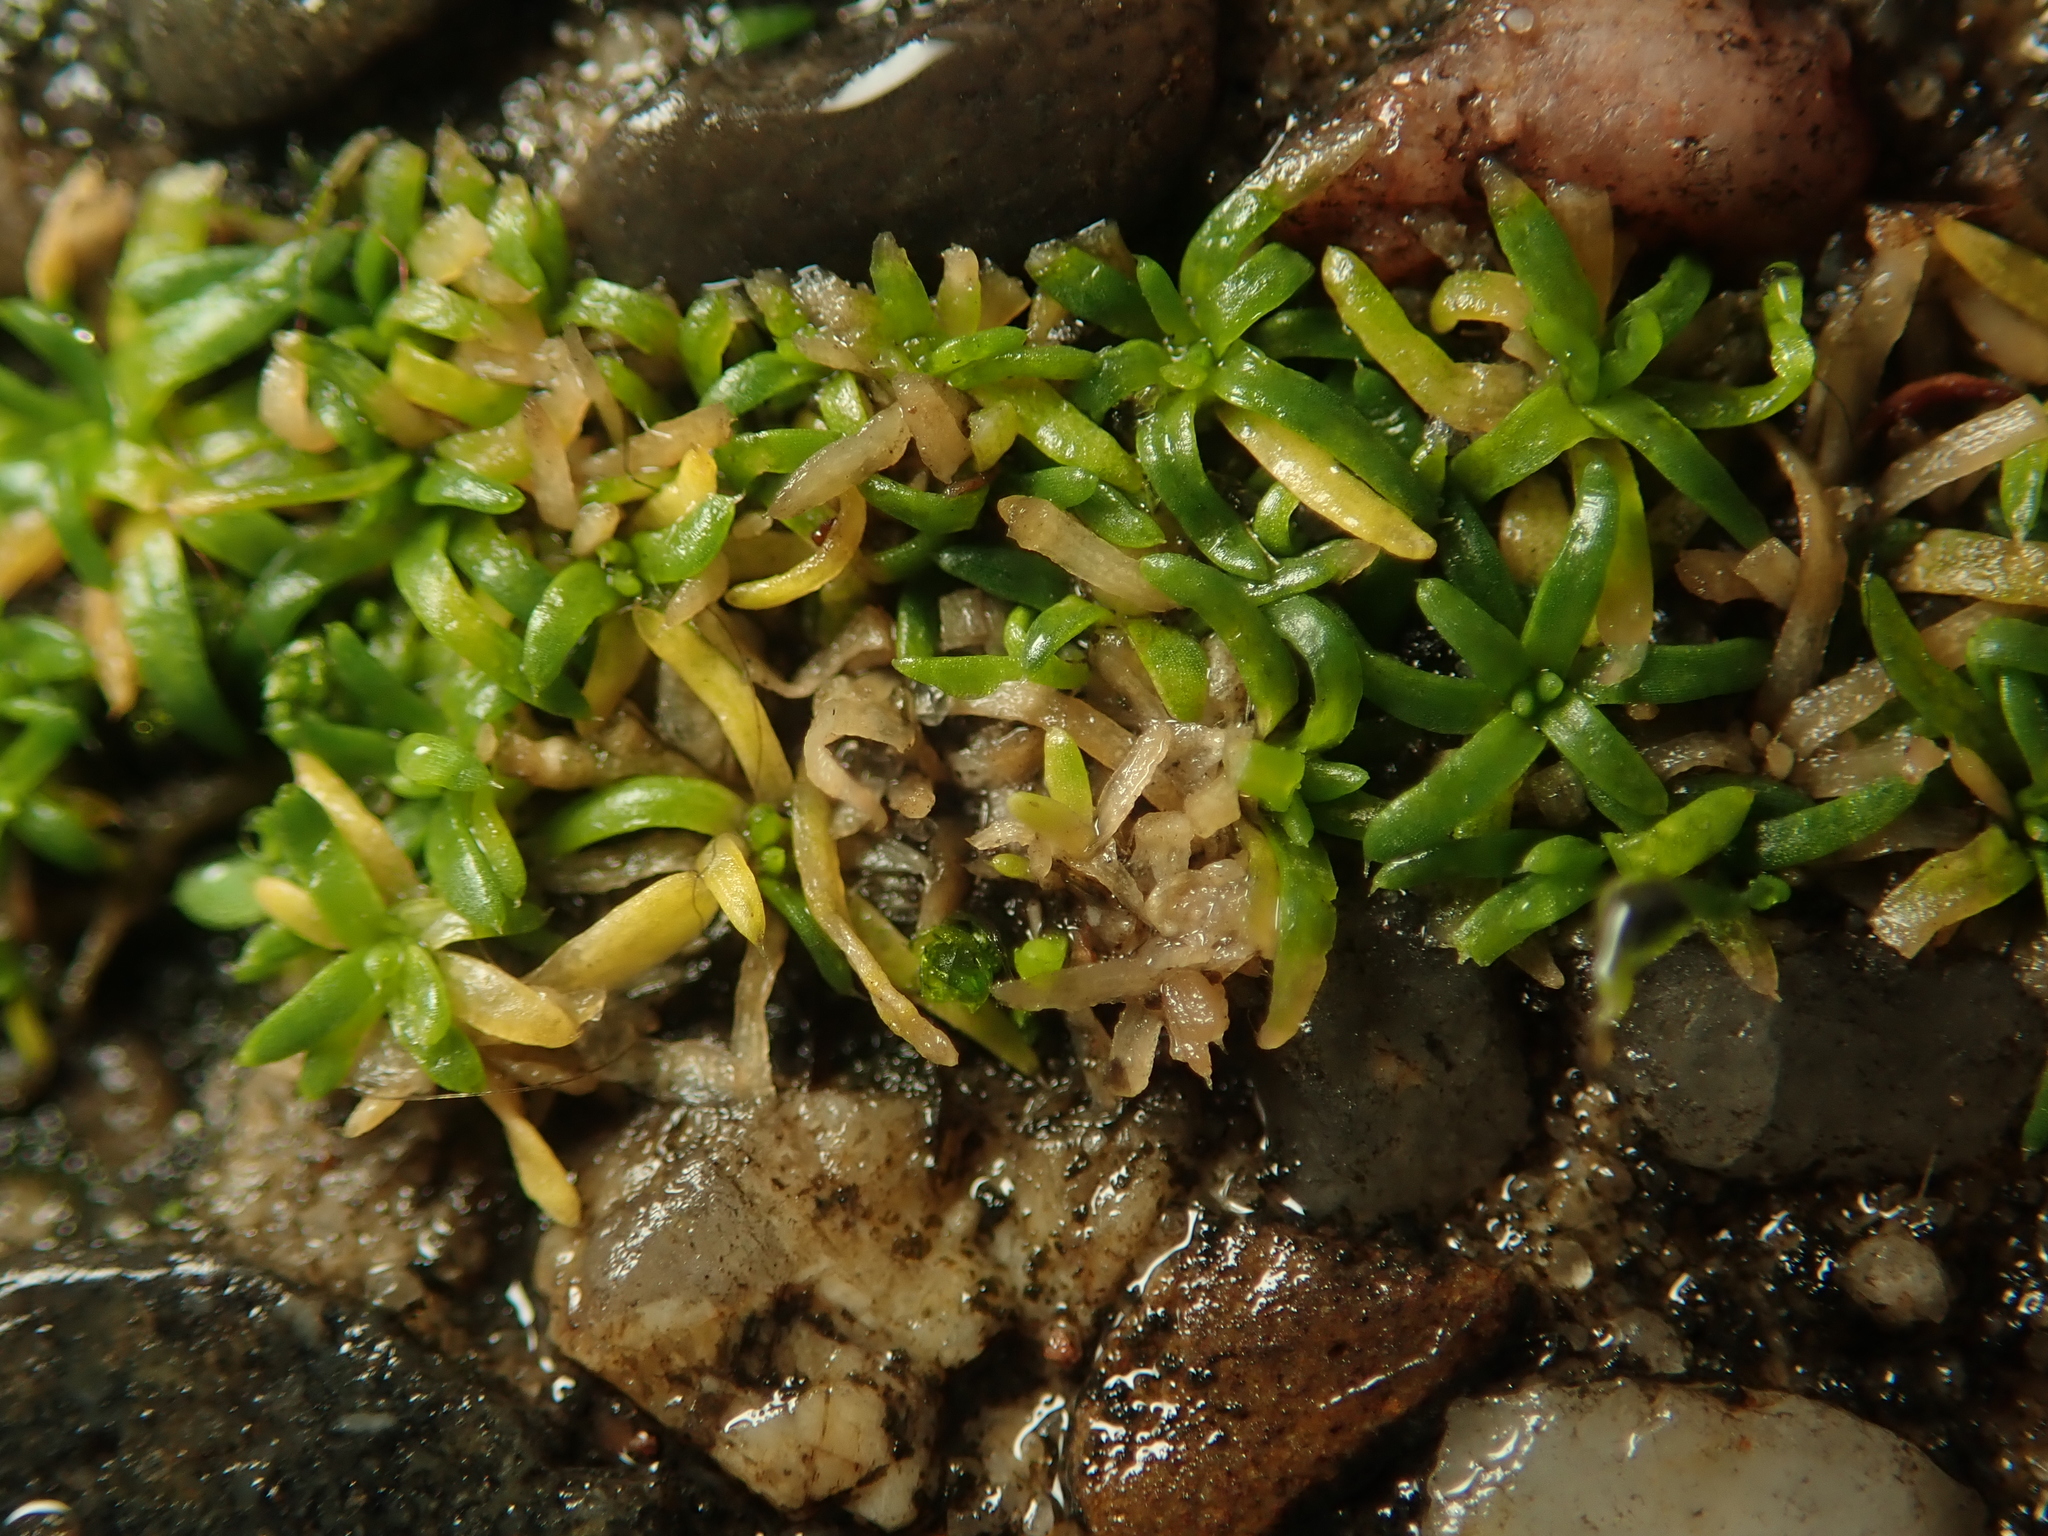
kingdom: Plantae
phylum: Tracheophyta
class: Magnoliopsida
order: Caryophyllales
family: Caryophyllaceae
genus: Sagina
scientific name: Sagina procumbens
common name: Procumbent pearlwort
